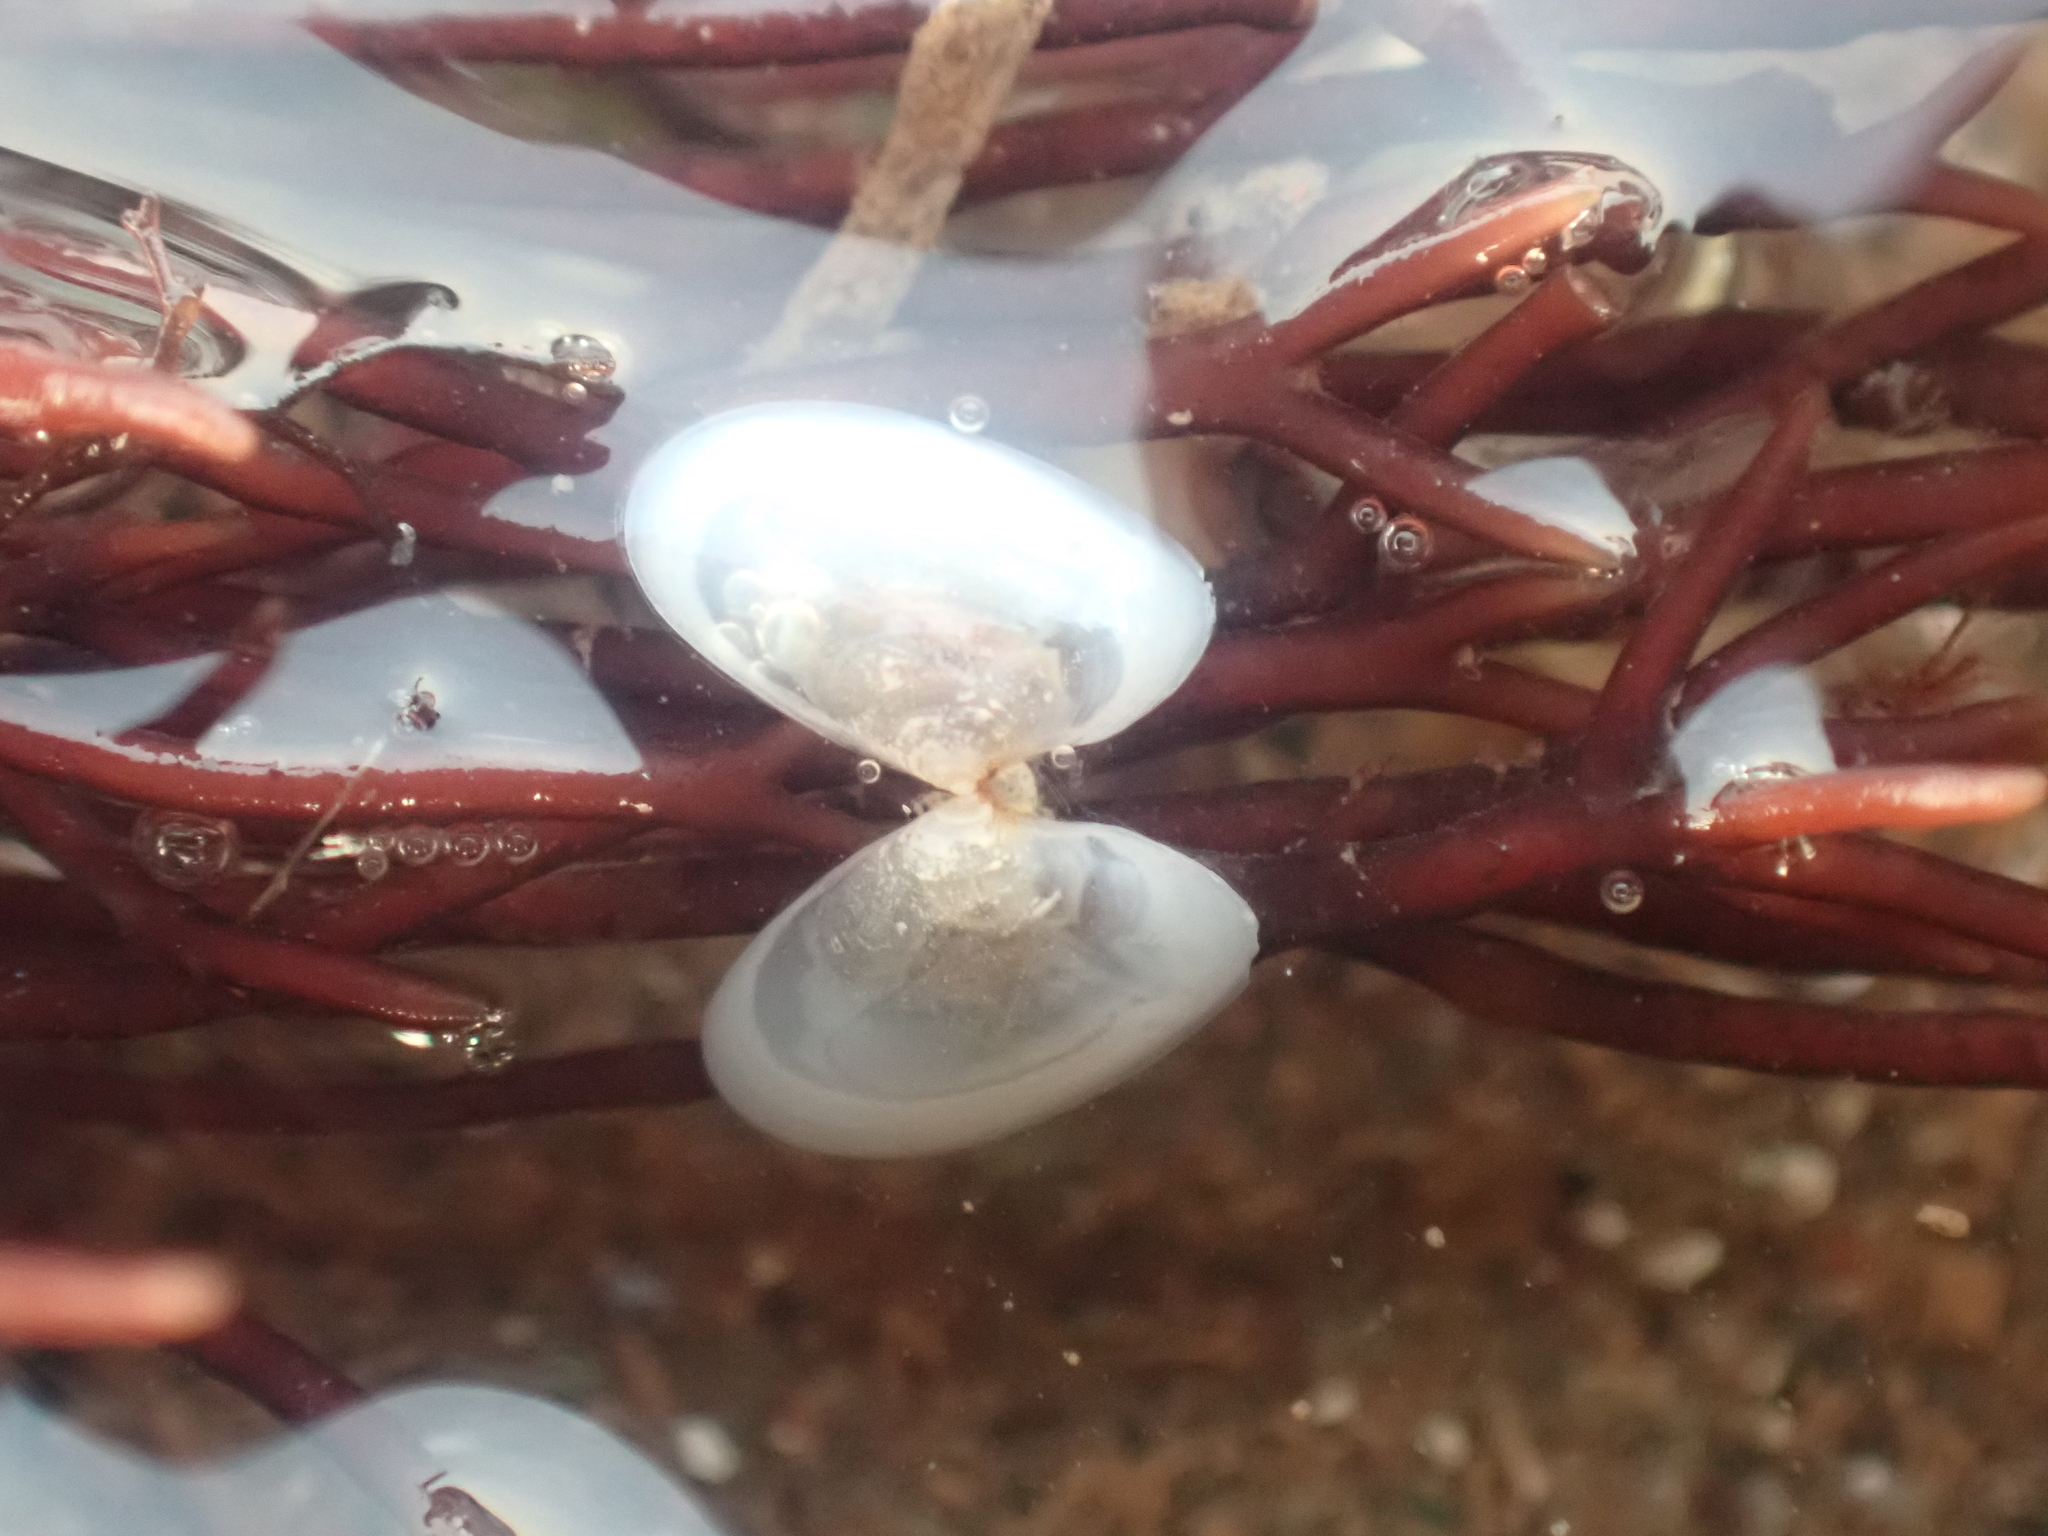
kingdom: Animalia
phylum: Mollusca
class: Bivalvia
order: Cardiida
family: Tellinidae
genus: Ameritella
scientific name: Ameritella agilis
